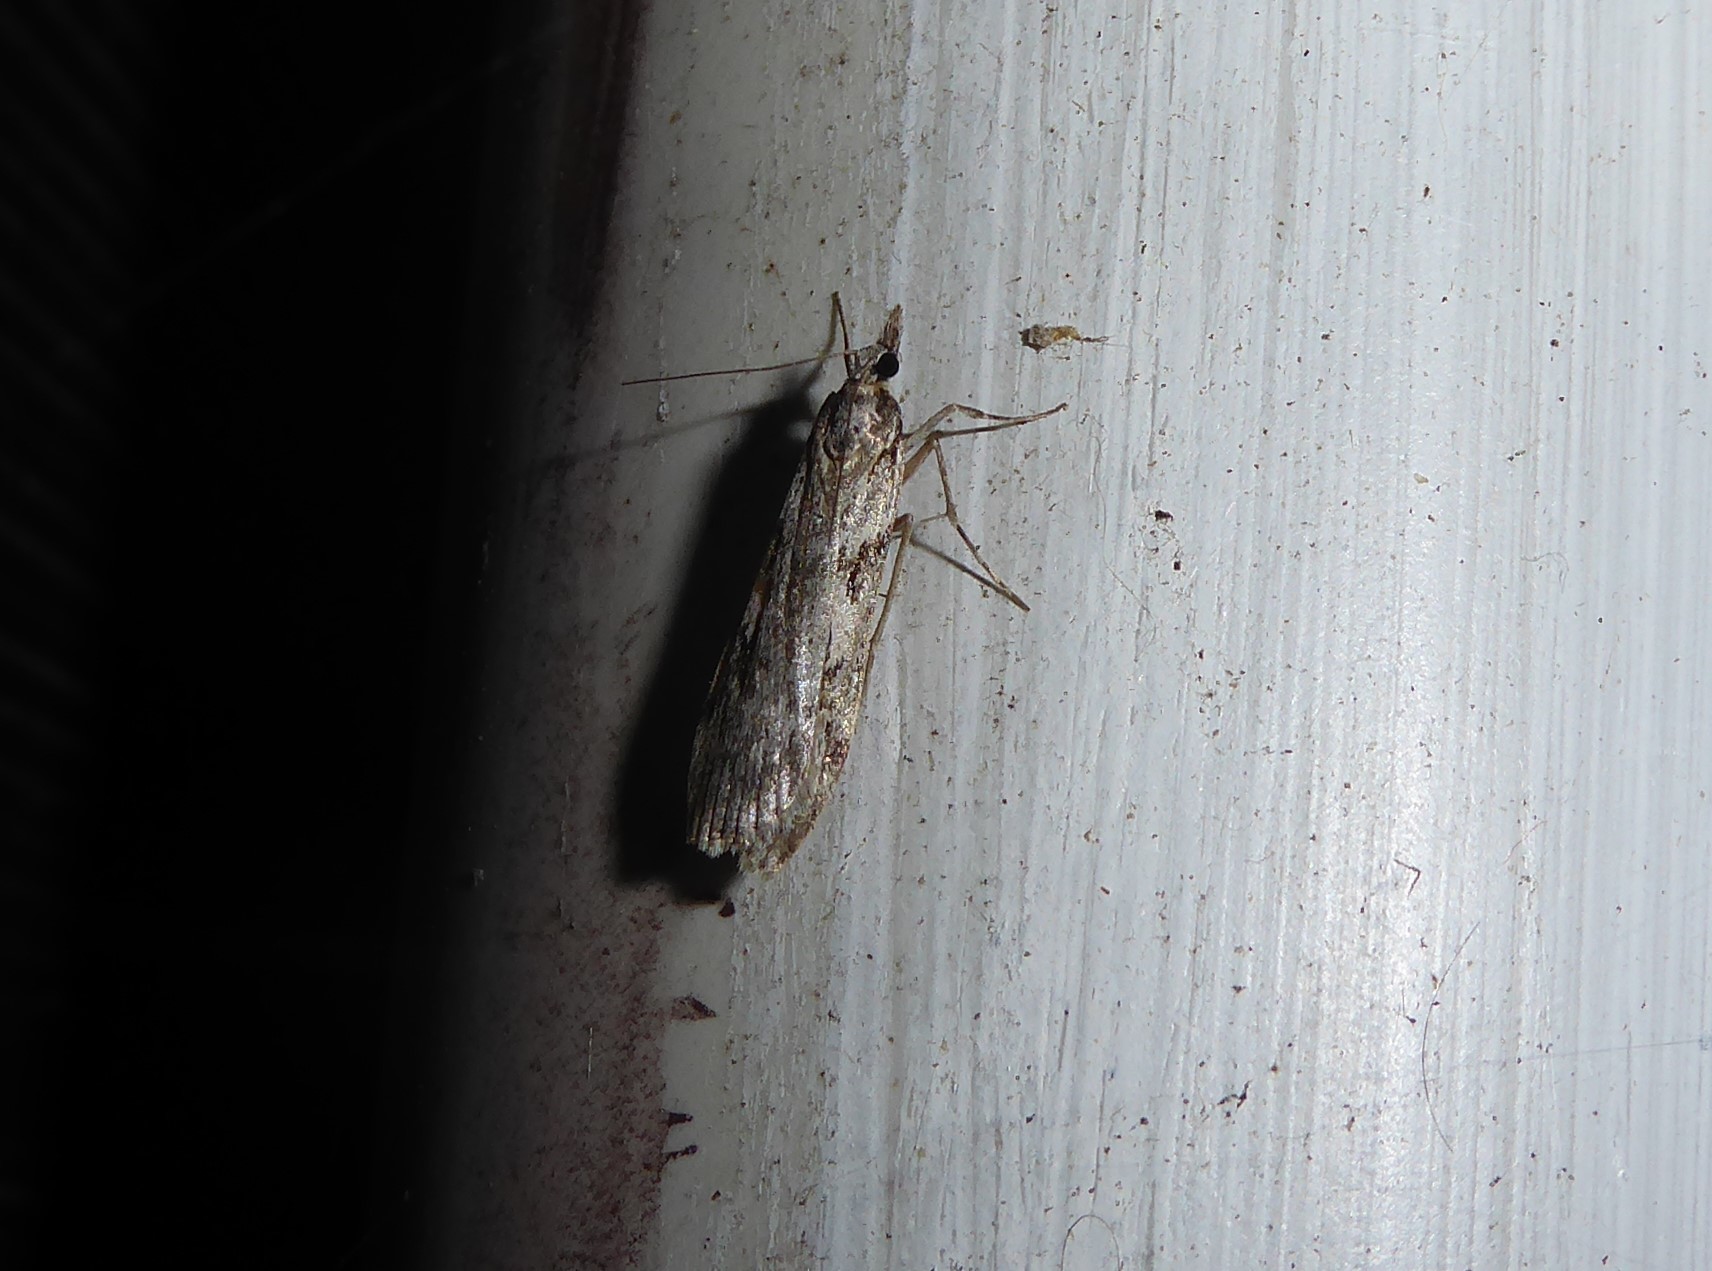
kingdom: Animalia
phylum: Arthropoda
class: Insecta
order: Lepidoptera
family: Crambidae
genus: Scoparia
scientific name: Scoparia halopis
